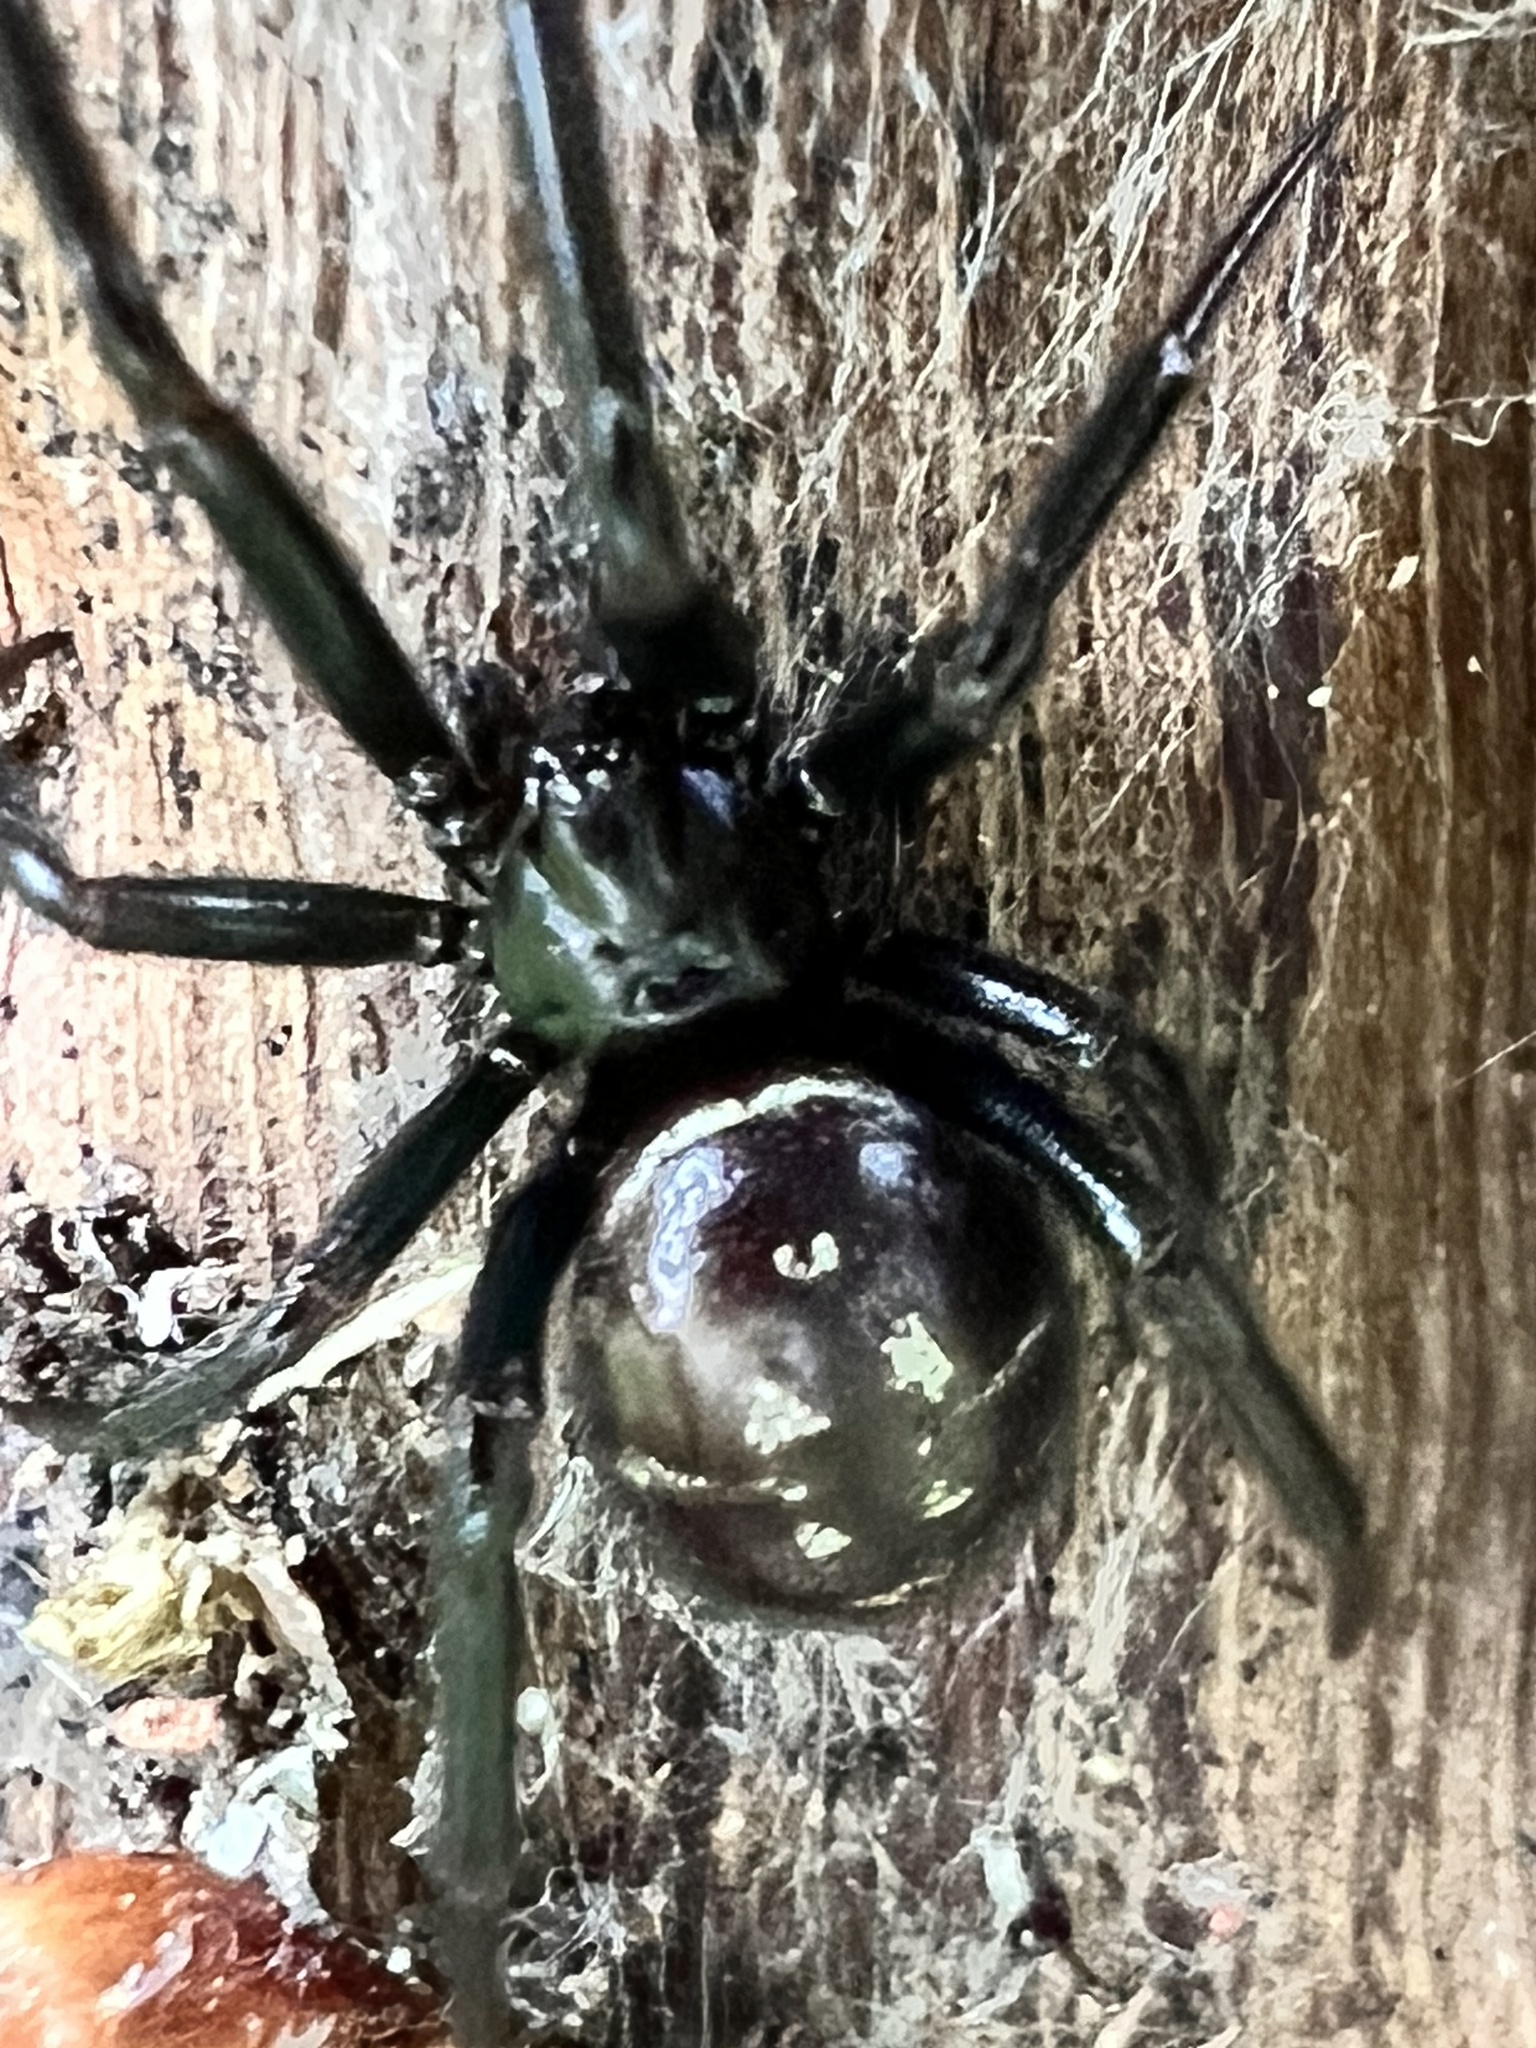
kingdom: Animalia
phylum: Arthropoda
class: Arachnida
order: Araneae
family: Theridiidae
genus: Steatoda
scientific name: Steatoda capensis
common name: Cobweb weaver
